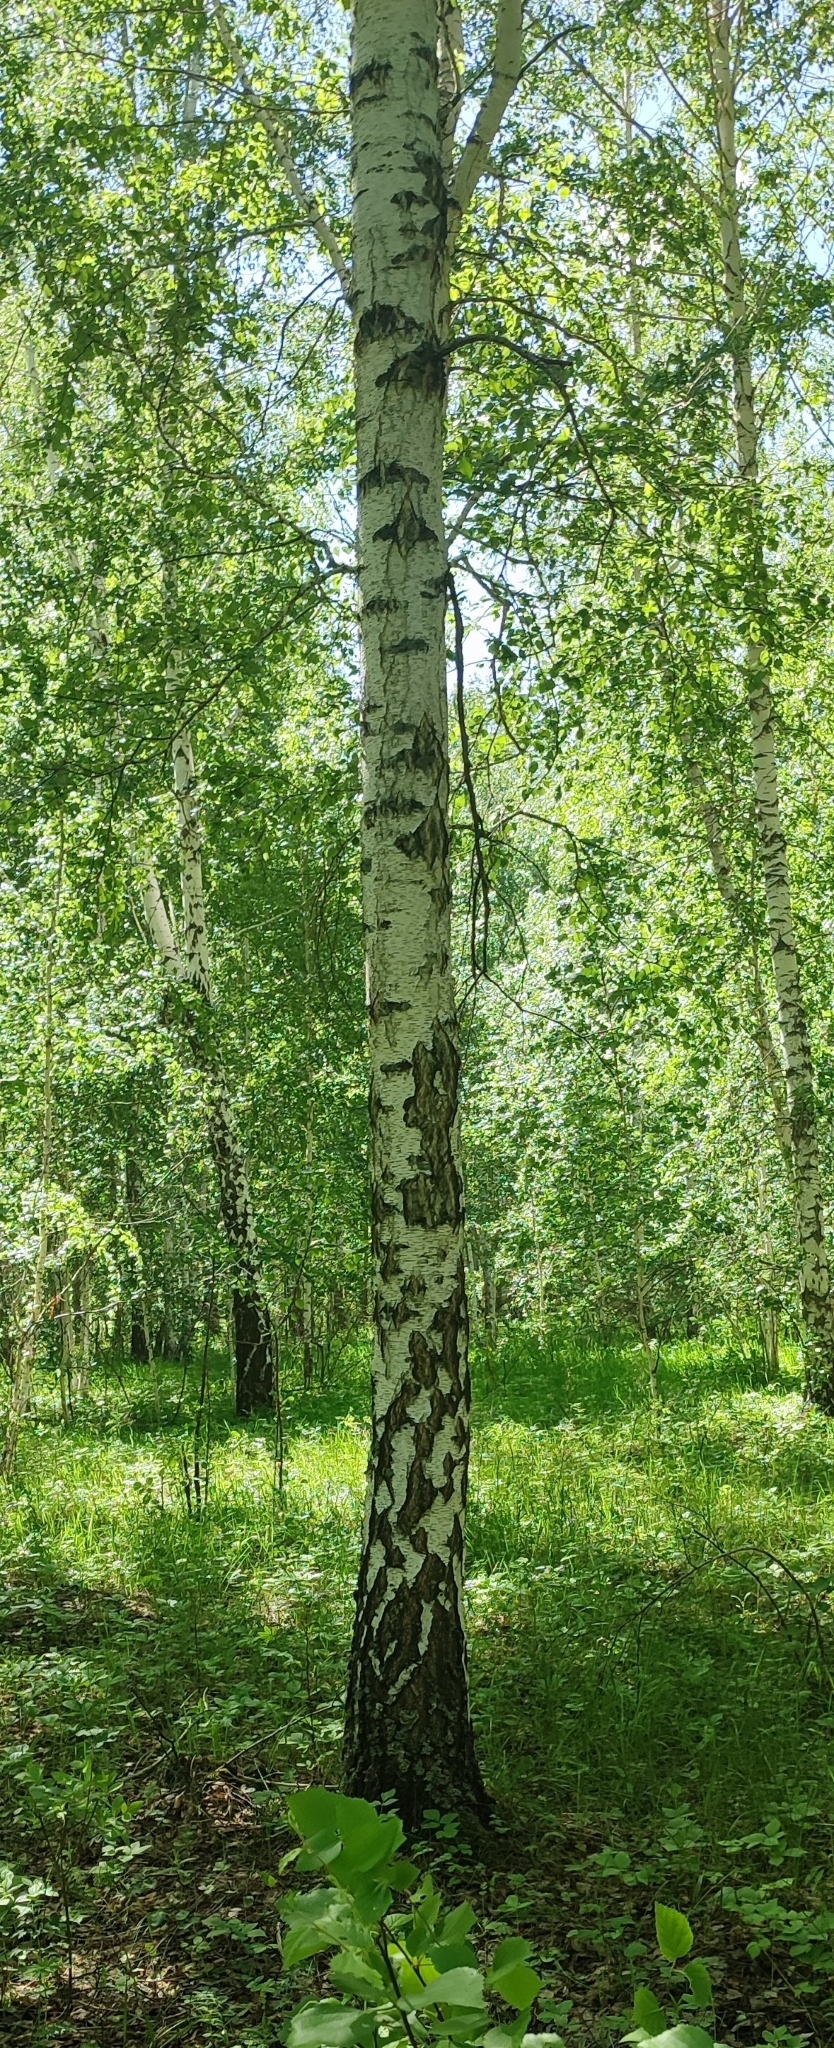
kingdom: Plantae
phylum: Tracheophyta
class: Magnoliopsida
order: Fagales
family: Betulaceae
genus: Betula
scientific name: Betula pendula
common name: Silver birch
